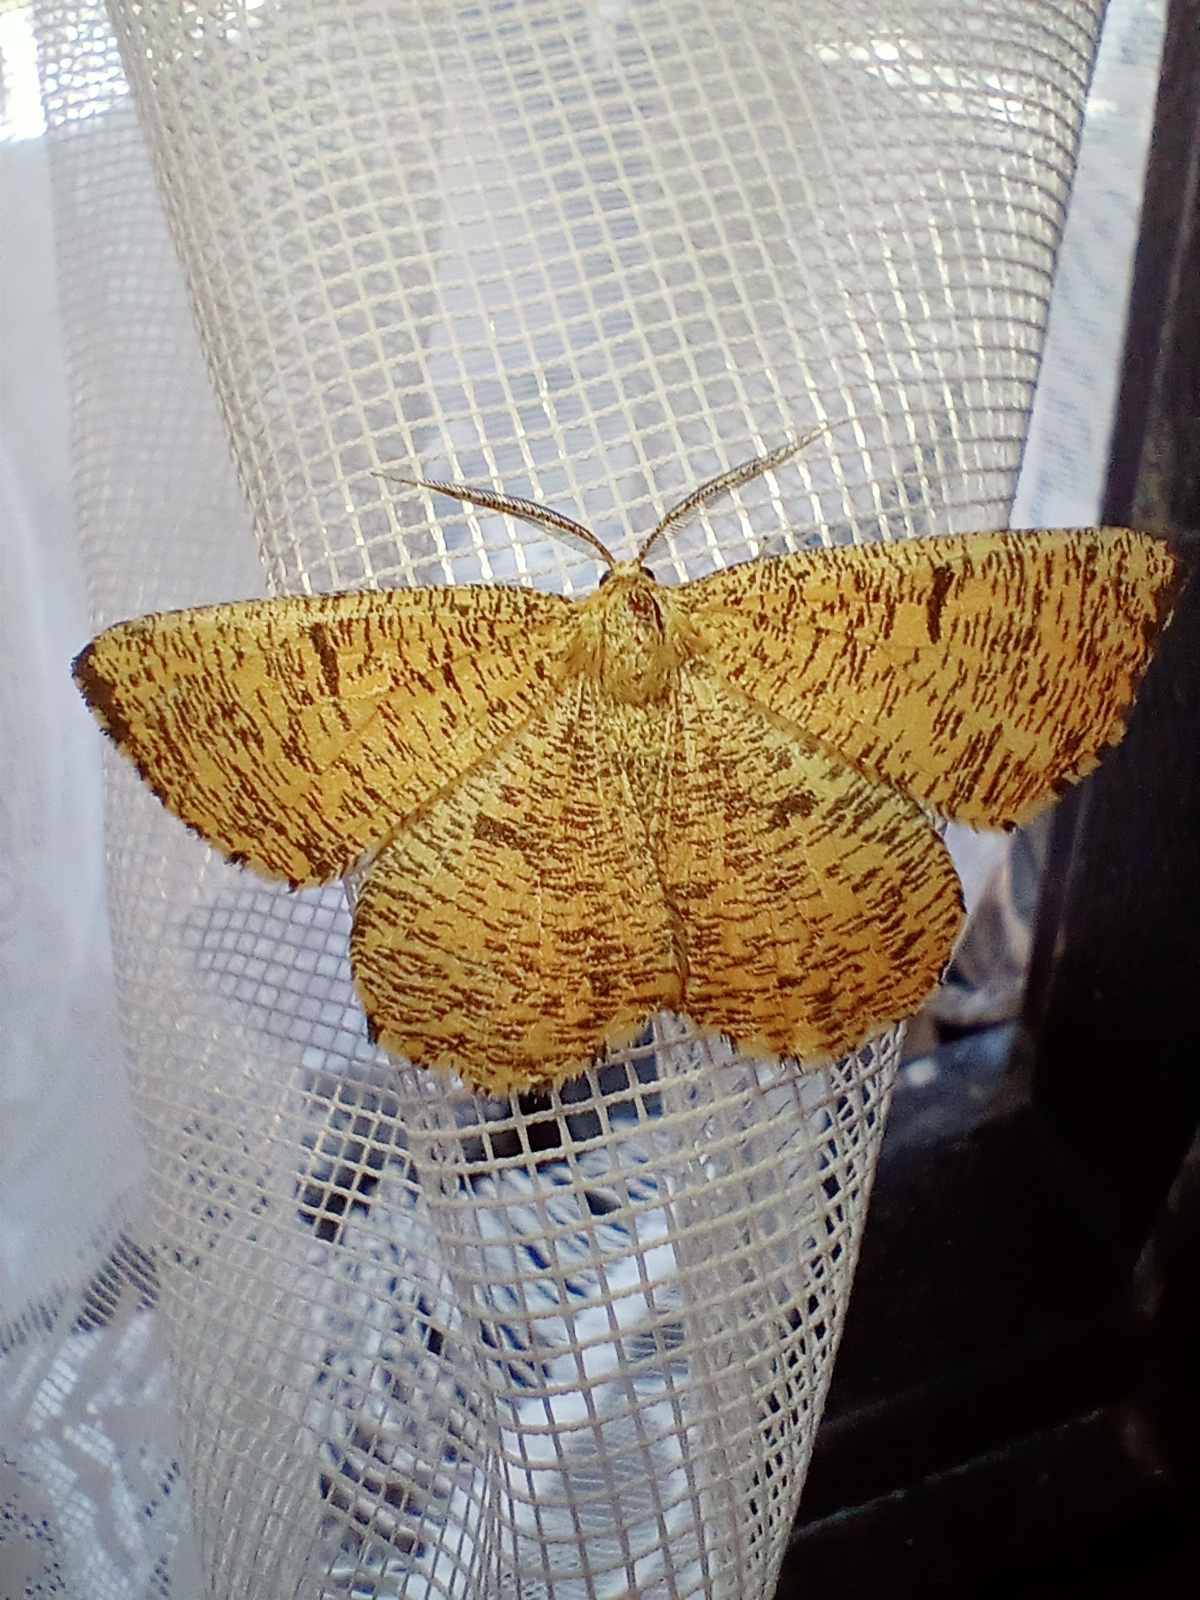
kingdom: Animalia
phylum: Arthropoda
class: Insecta
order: Lepidoptera
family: Geometridae
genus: Angerona
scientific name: Angerona prunaria
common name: Orange moth
